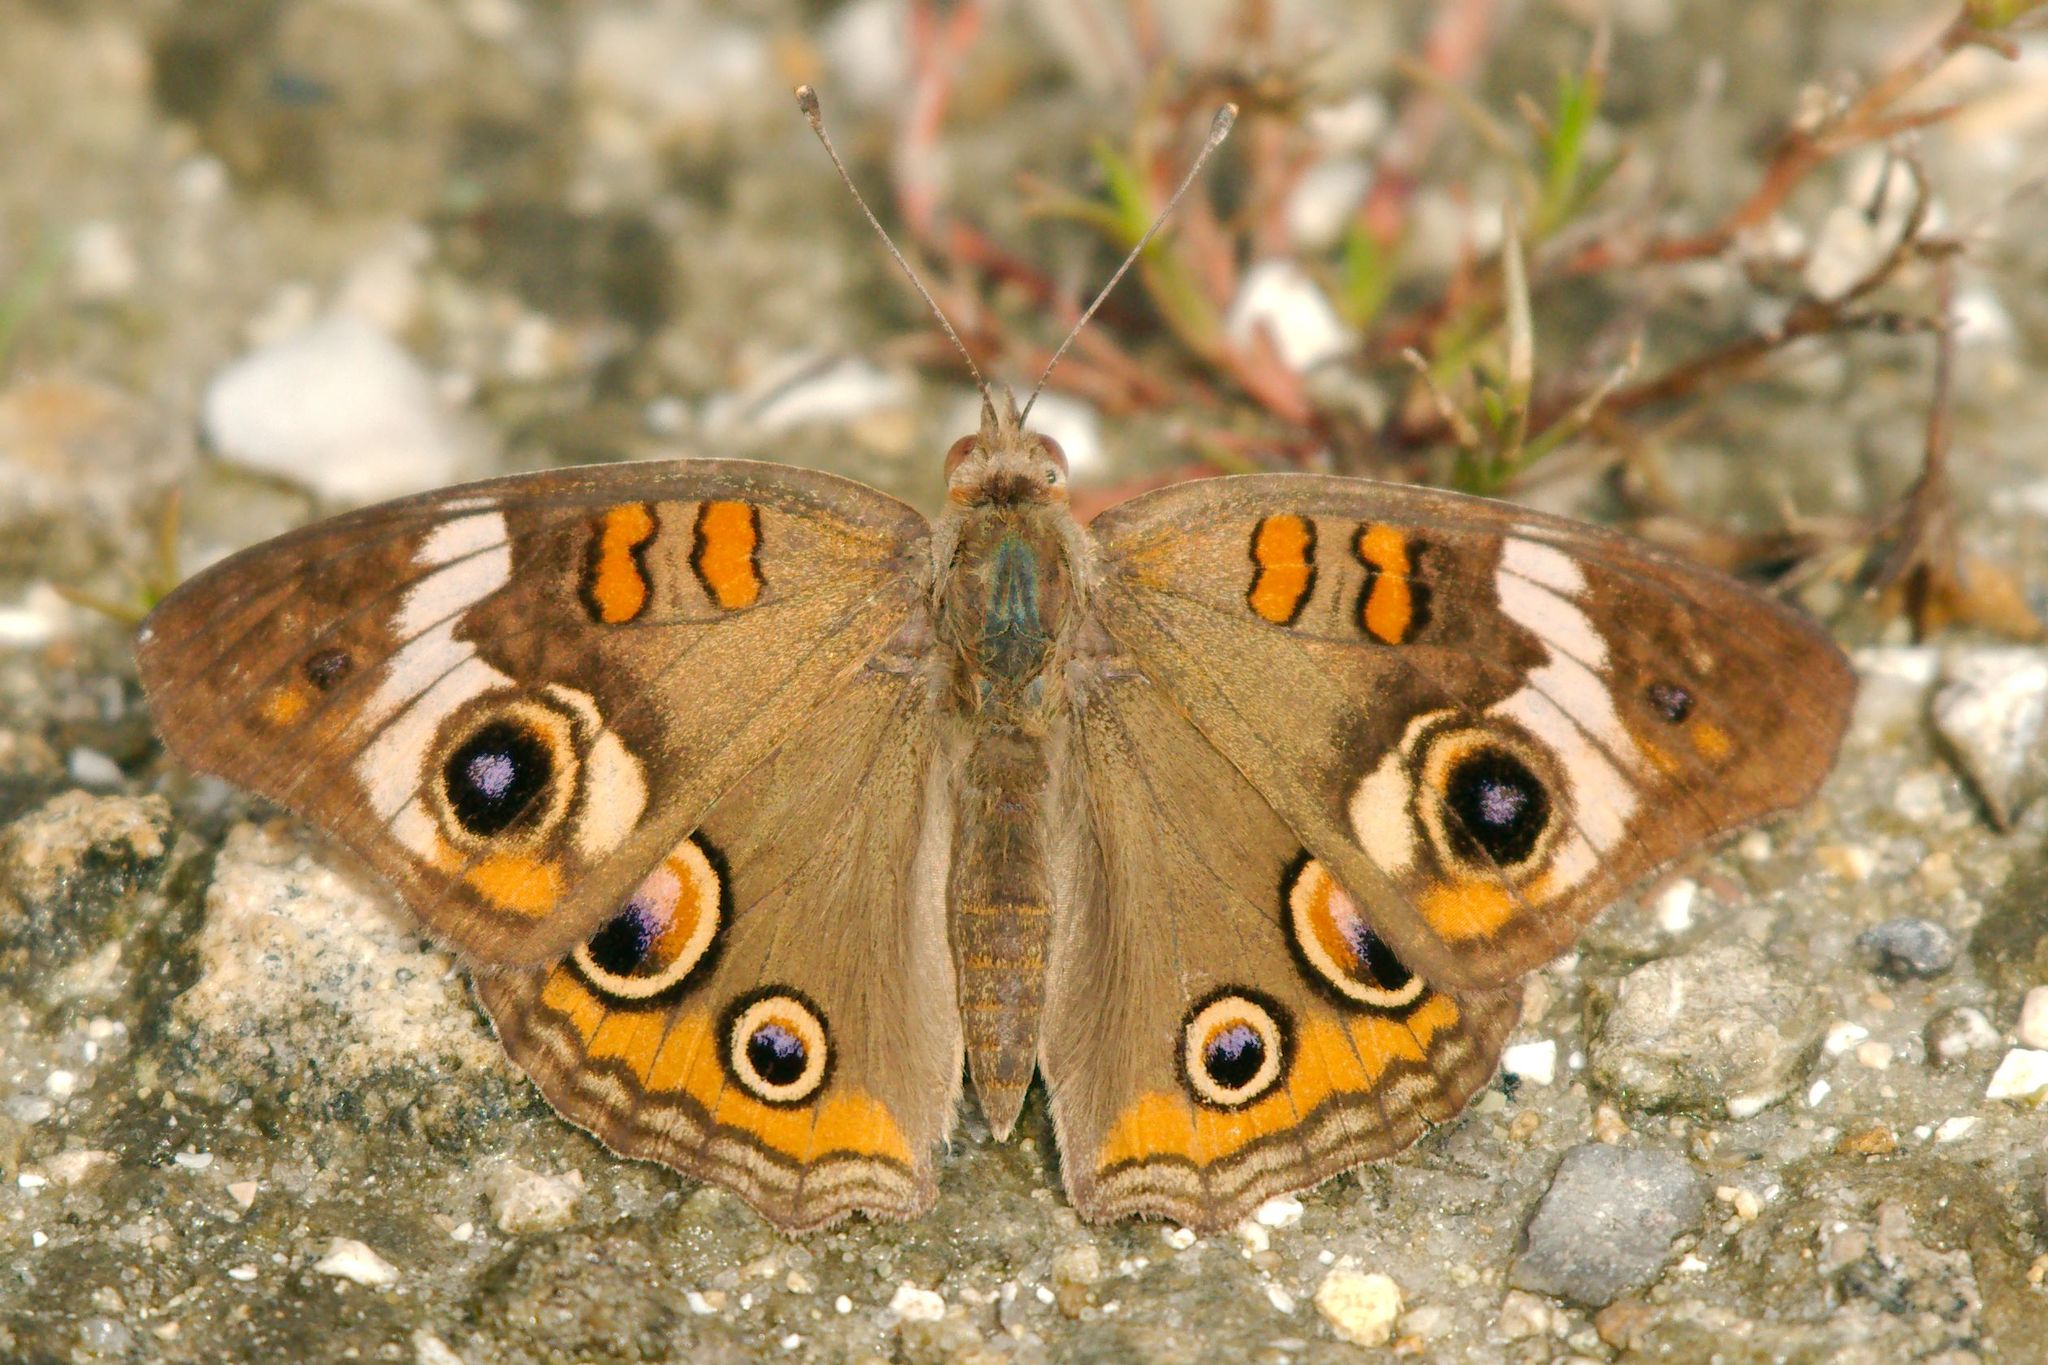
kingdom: Animalia
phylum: Arthropoda
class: Insecta
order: Lepidoptera
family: Nymphalidae
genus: Junonia
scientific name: Junonia coenia
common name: Common buckeye
